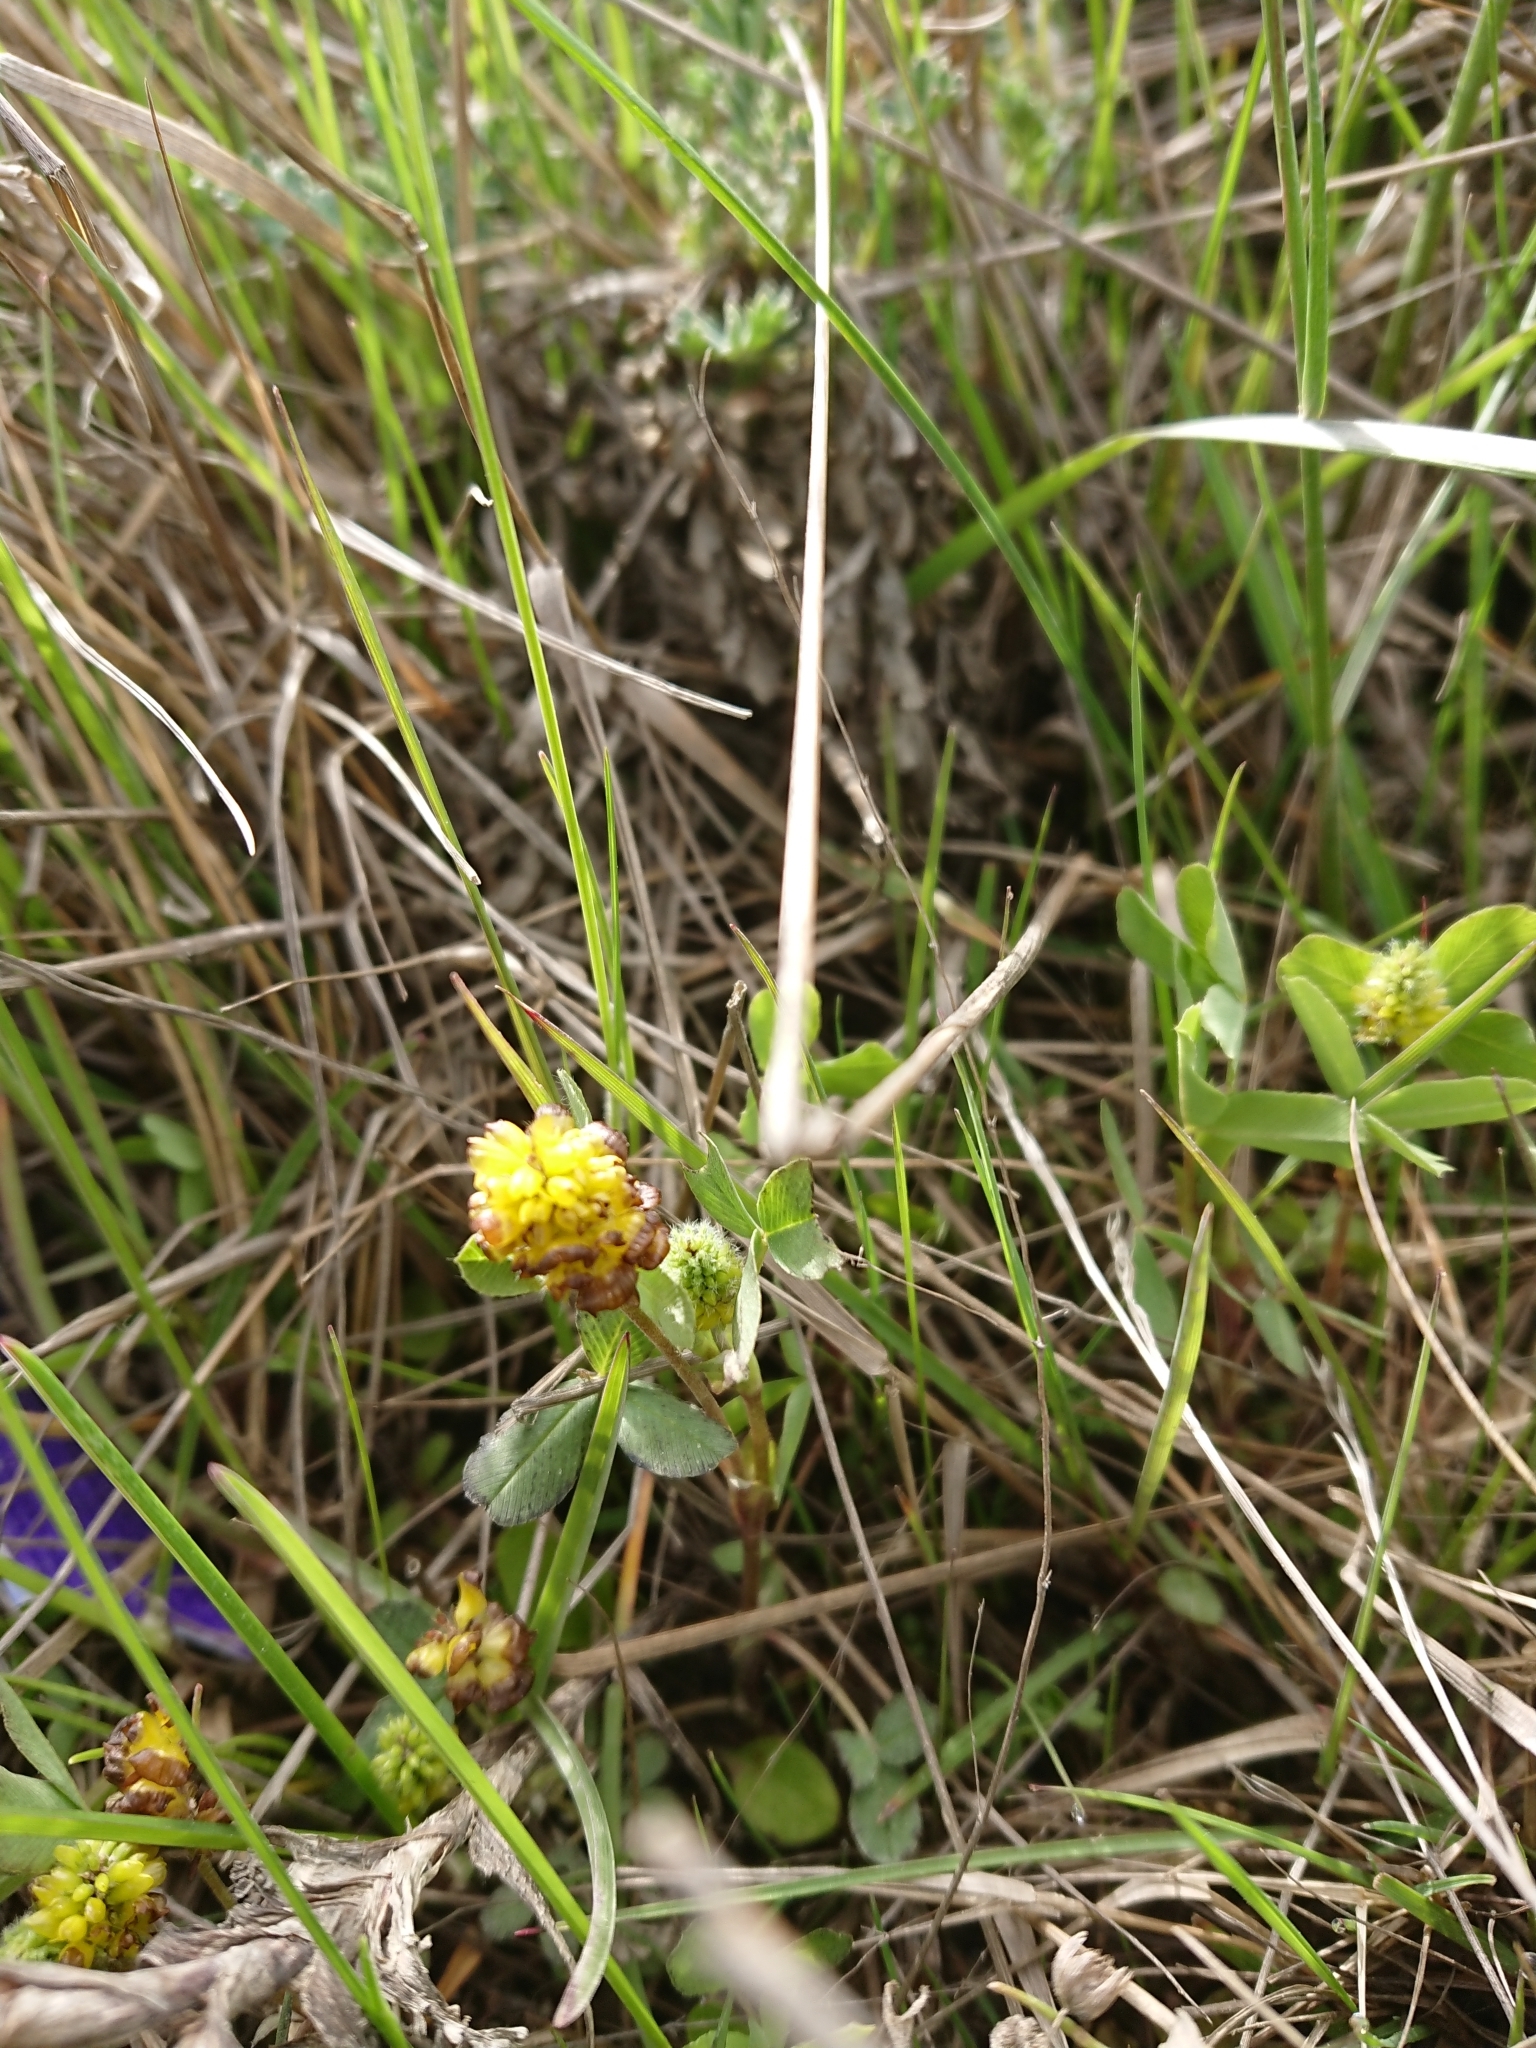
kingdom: Plantae
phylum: Tracheophyta
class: Magnoliopsida
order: Fabales
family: Fabaceae
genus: Trifolium
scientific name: Trifolium spadiceum
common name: Brown moor clover
